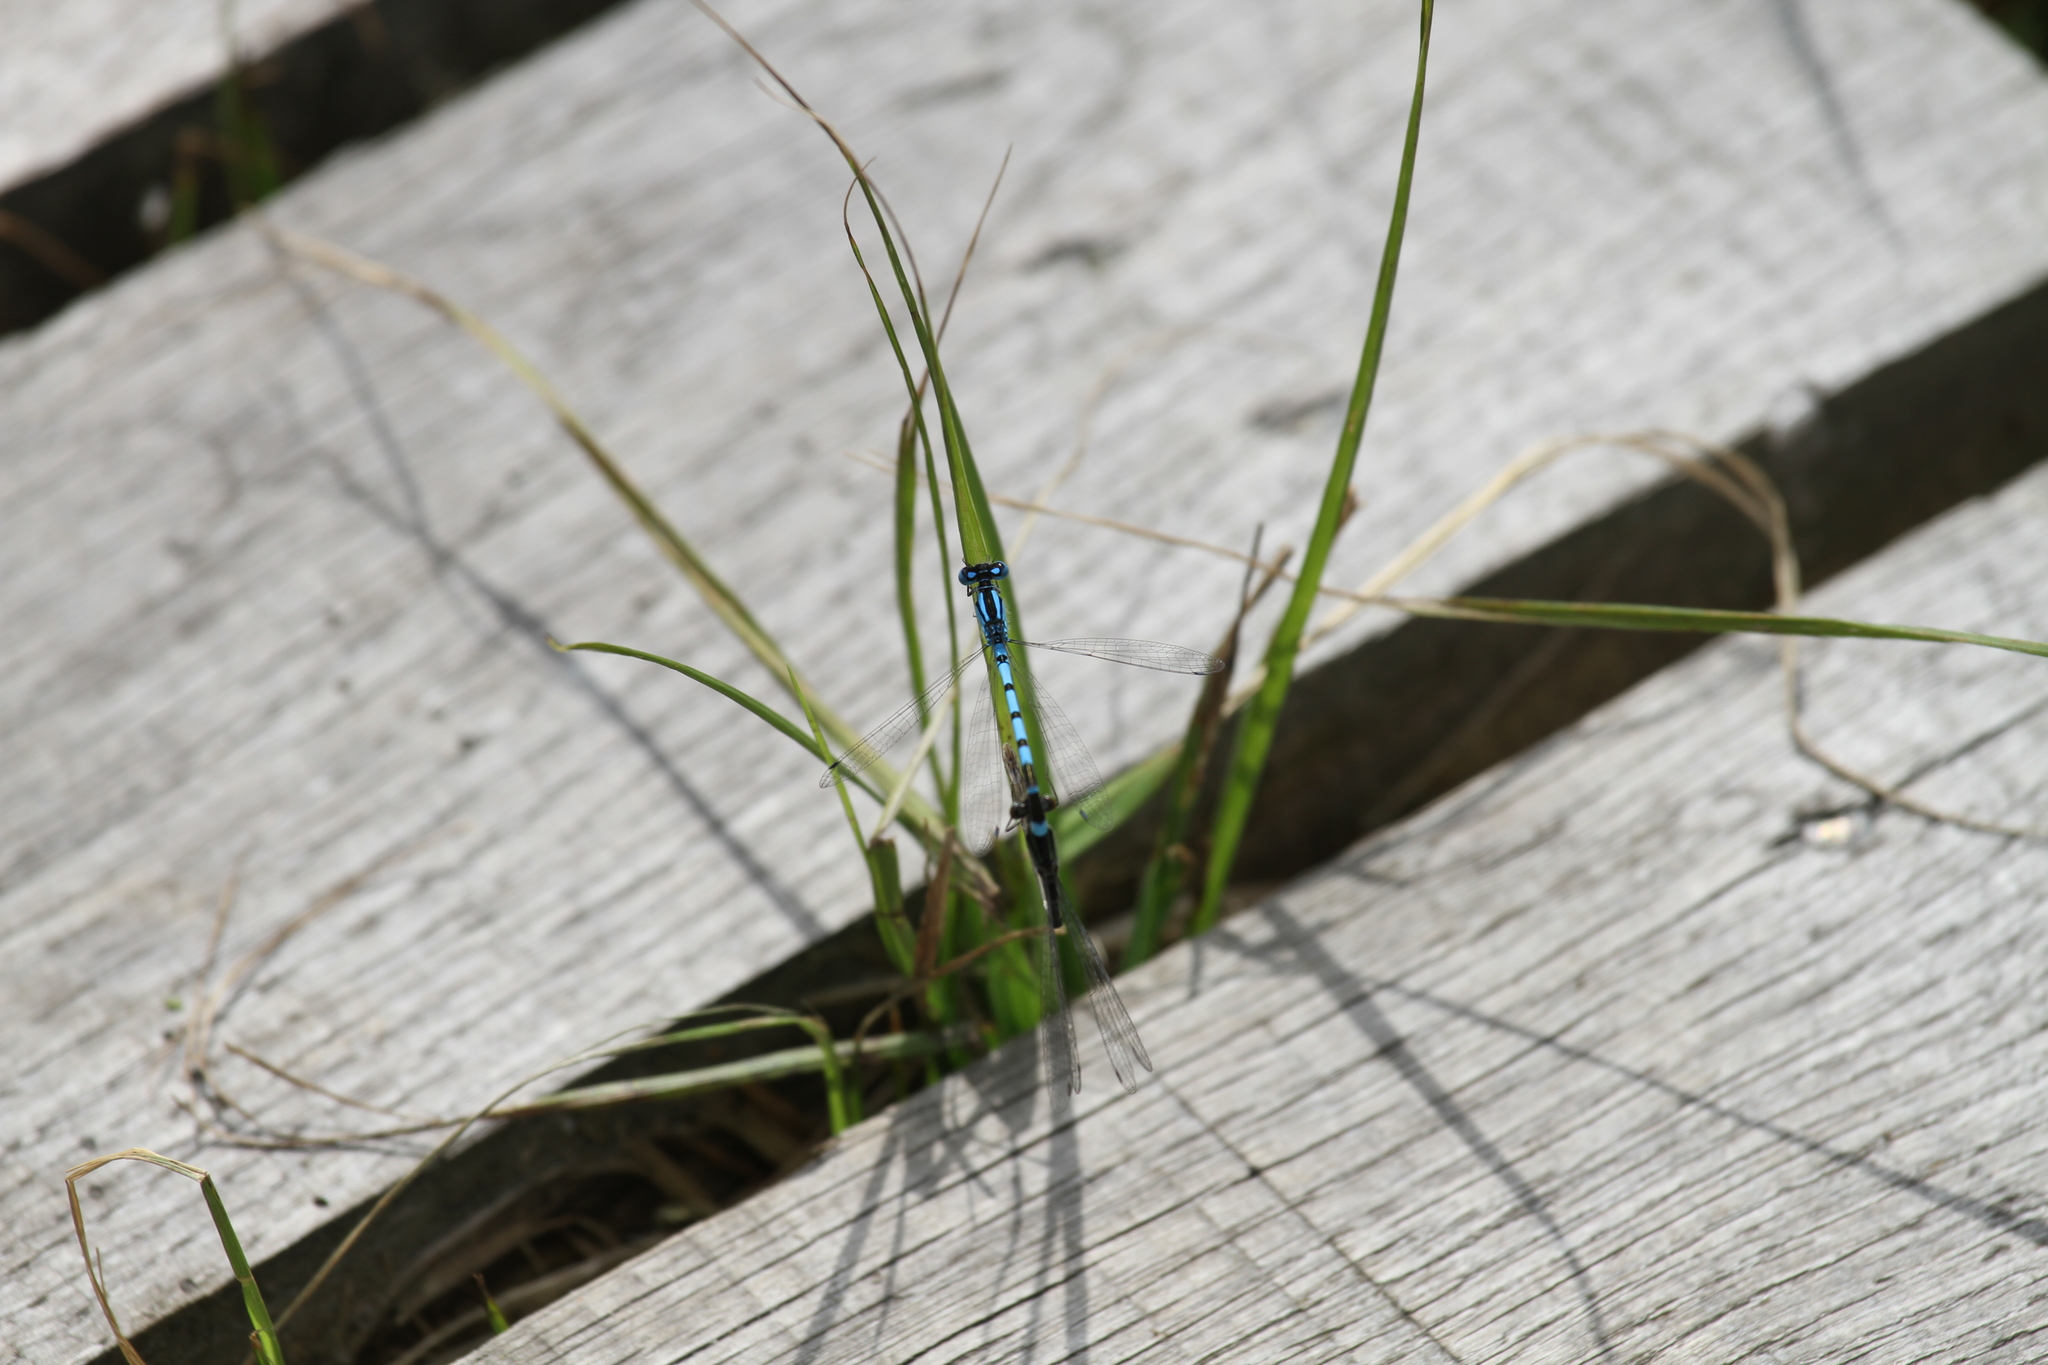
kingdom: Animalia
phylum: Arthropoda
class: Insecta
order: Odonata
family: Coenagrionidae
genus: Enallagma
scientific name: Enallagma cyathigerum
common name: Common blue damselfly
